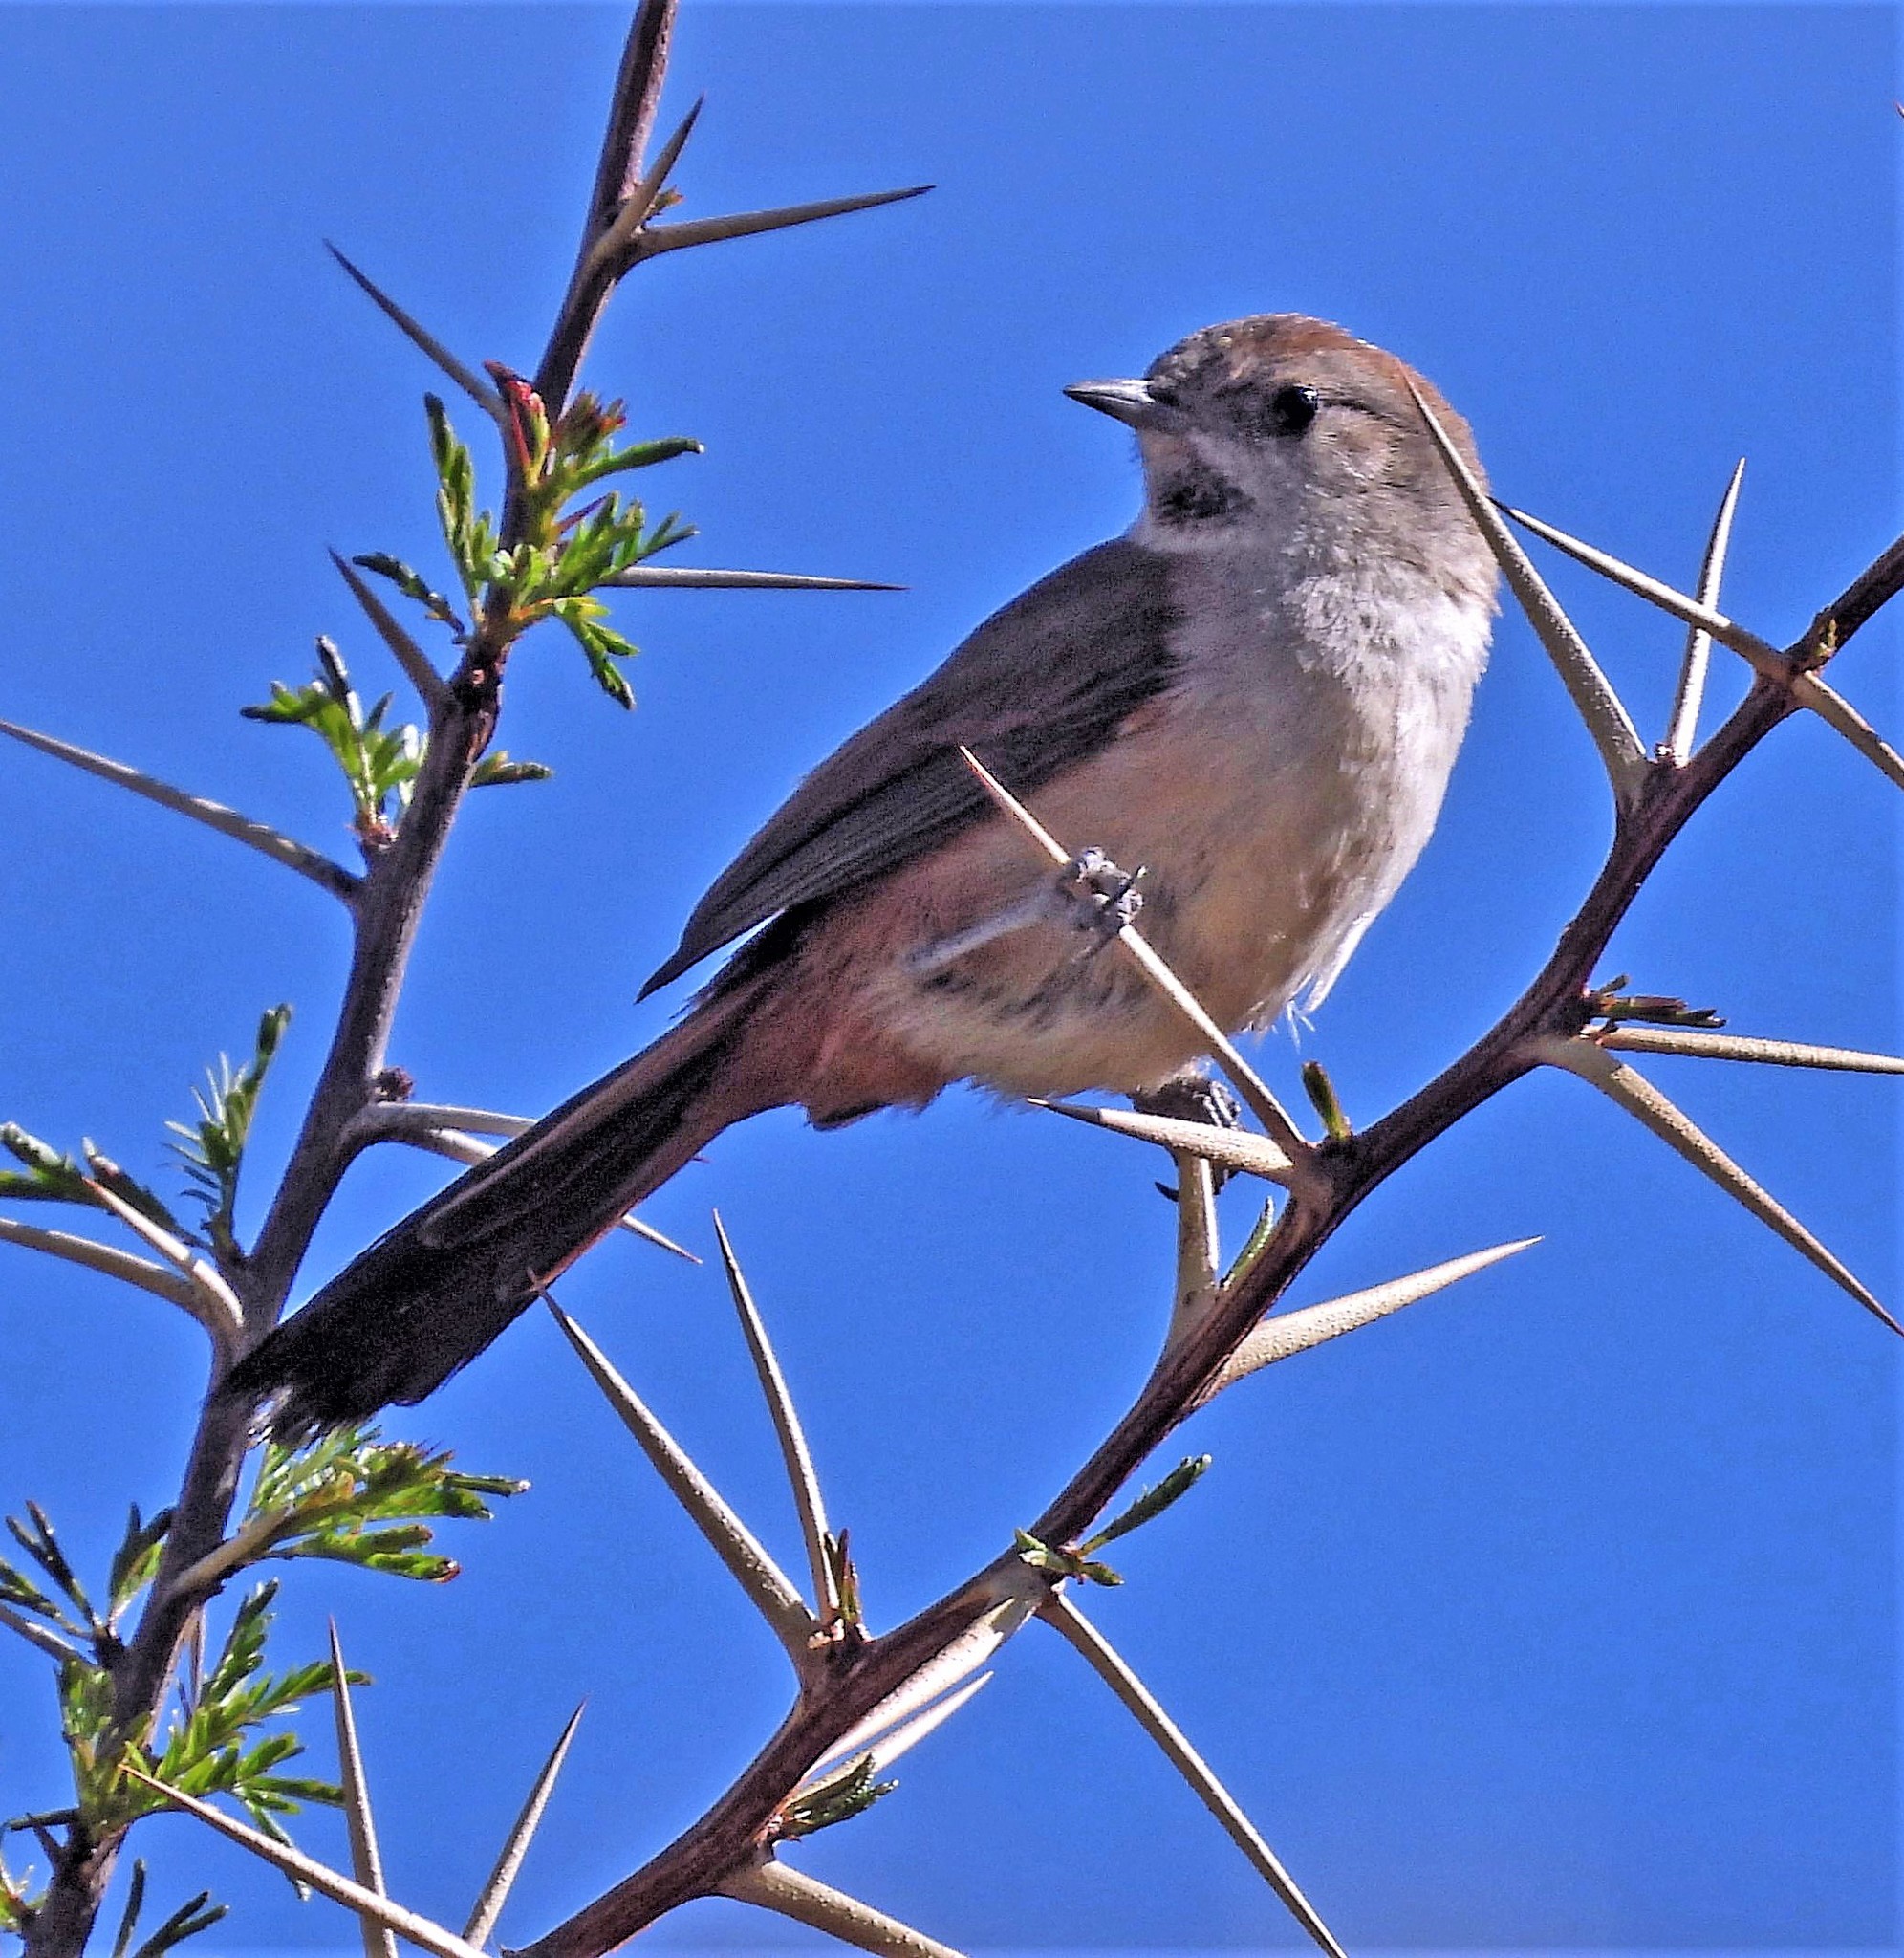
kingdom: Animalia
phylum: Chordata
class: Aves
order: Passeriformes
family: Furnariidae
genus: Asthenes
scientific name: Asthenes dorbignyi
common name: Rusty-vented canastero
